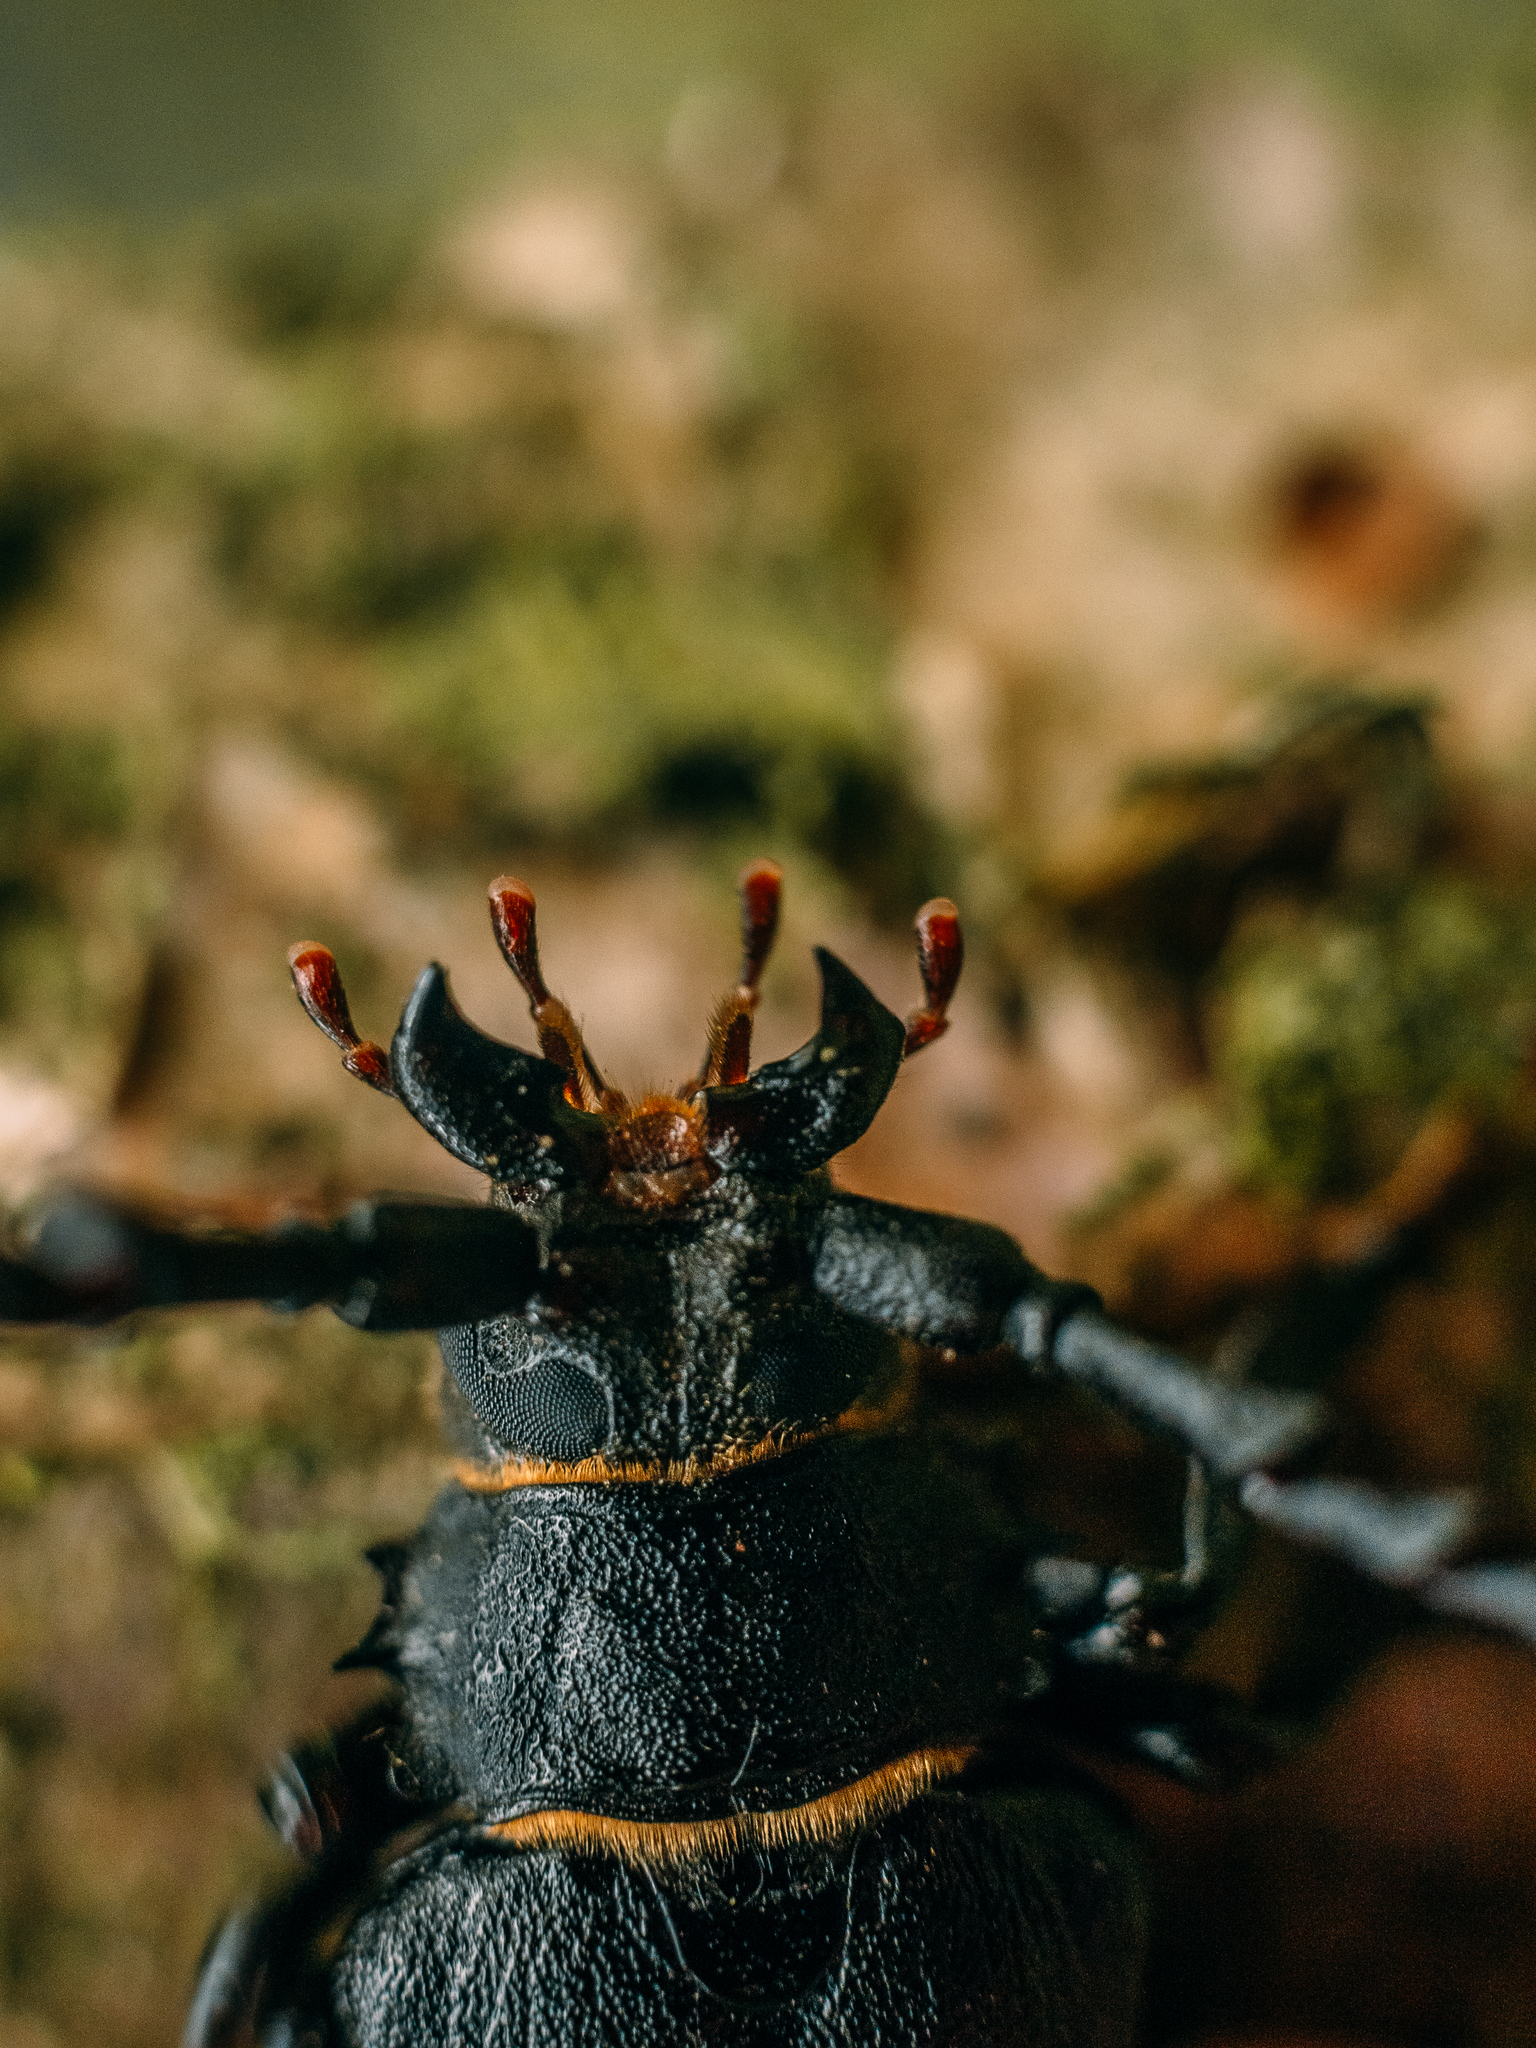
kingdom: Animalia
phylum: Arthropoda
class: Insecta
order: Coleoptera
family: Cerambycidae
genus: Prionus
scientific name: Prionus coriarius
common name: Tanner beetle
